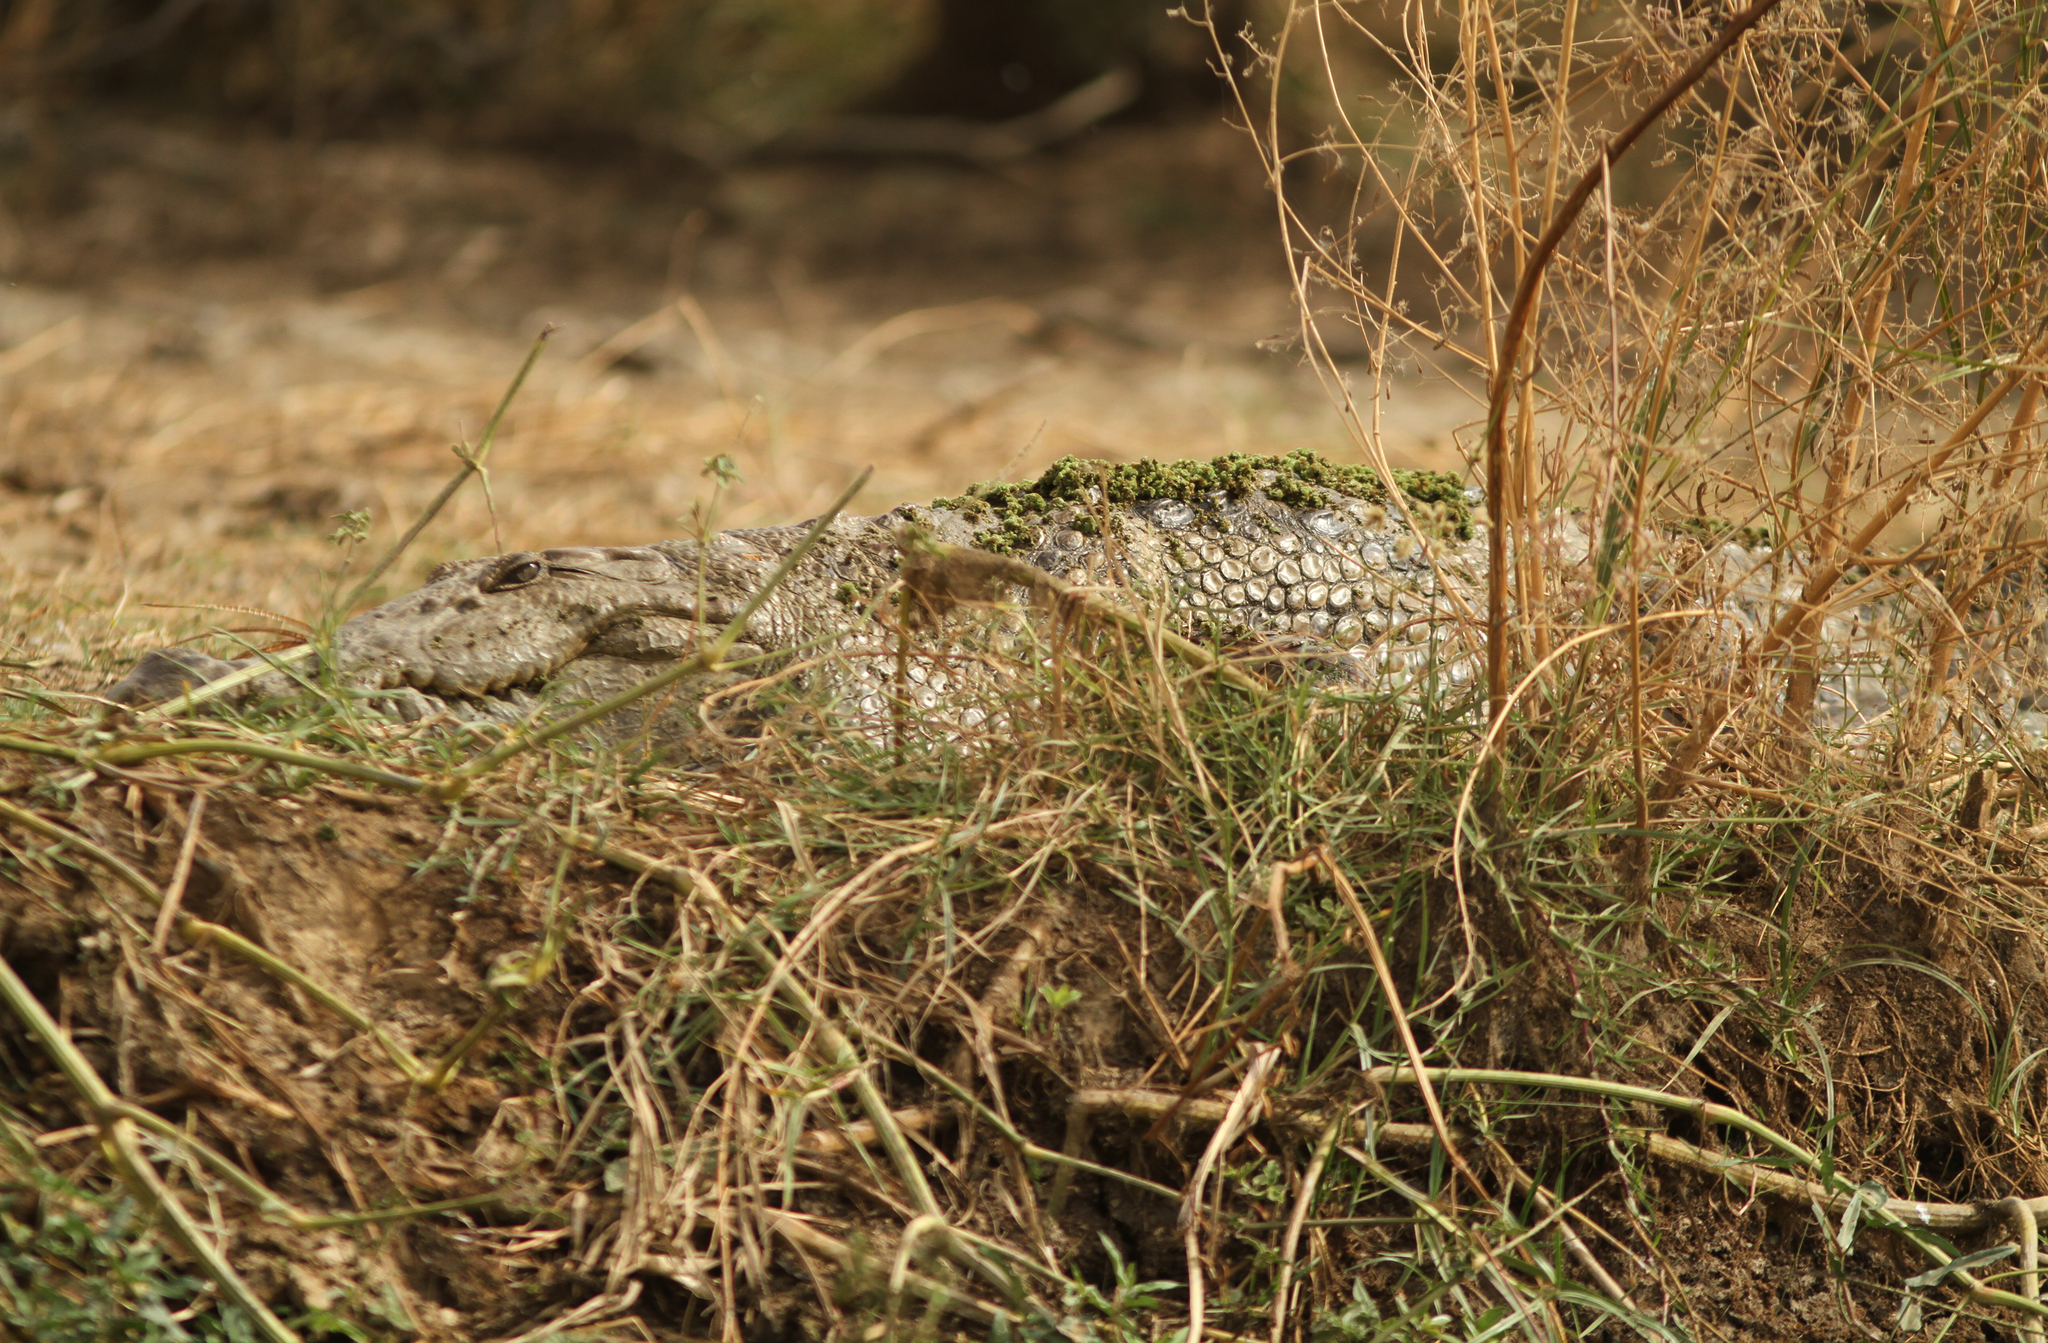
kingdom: Animalia
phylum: Chordata
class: Crocodylia
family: Crocodylidae
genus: Crocodylus
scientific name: Crocodylus suchus
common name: West african crocodile
